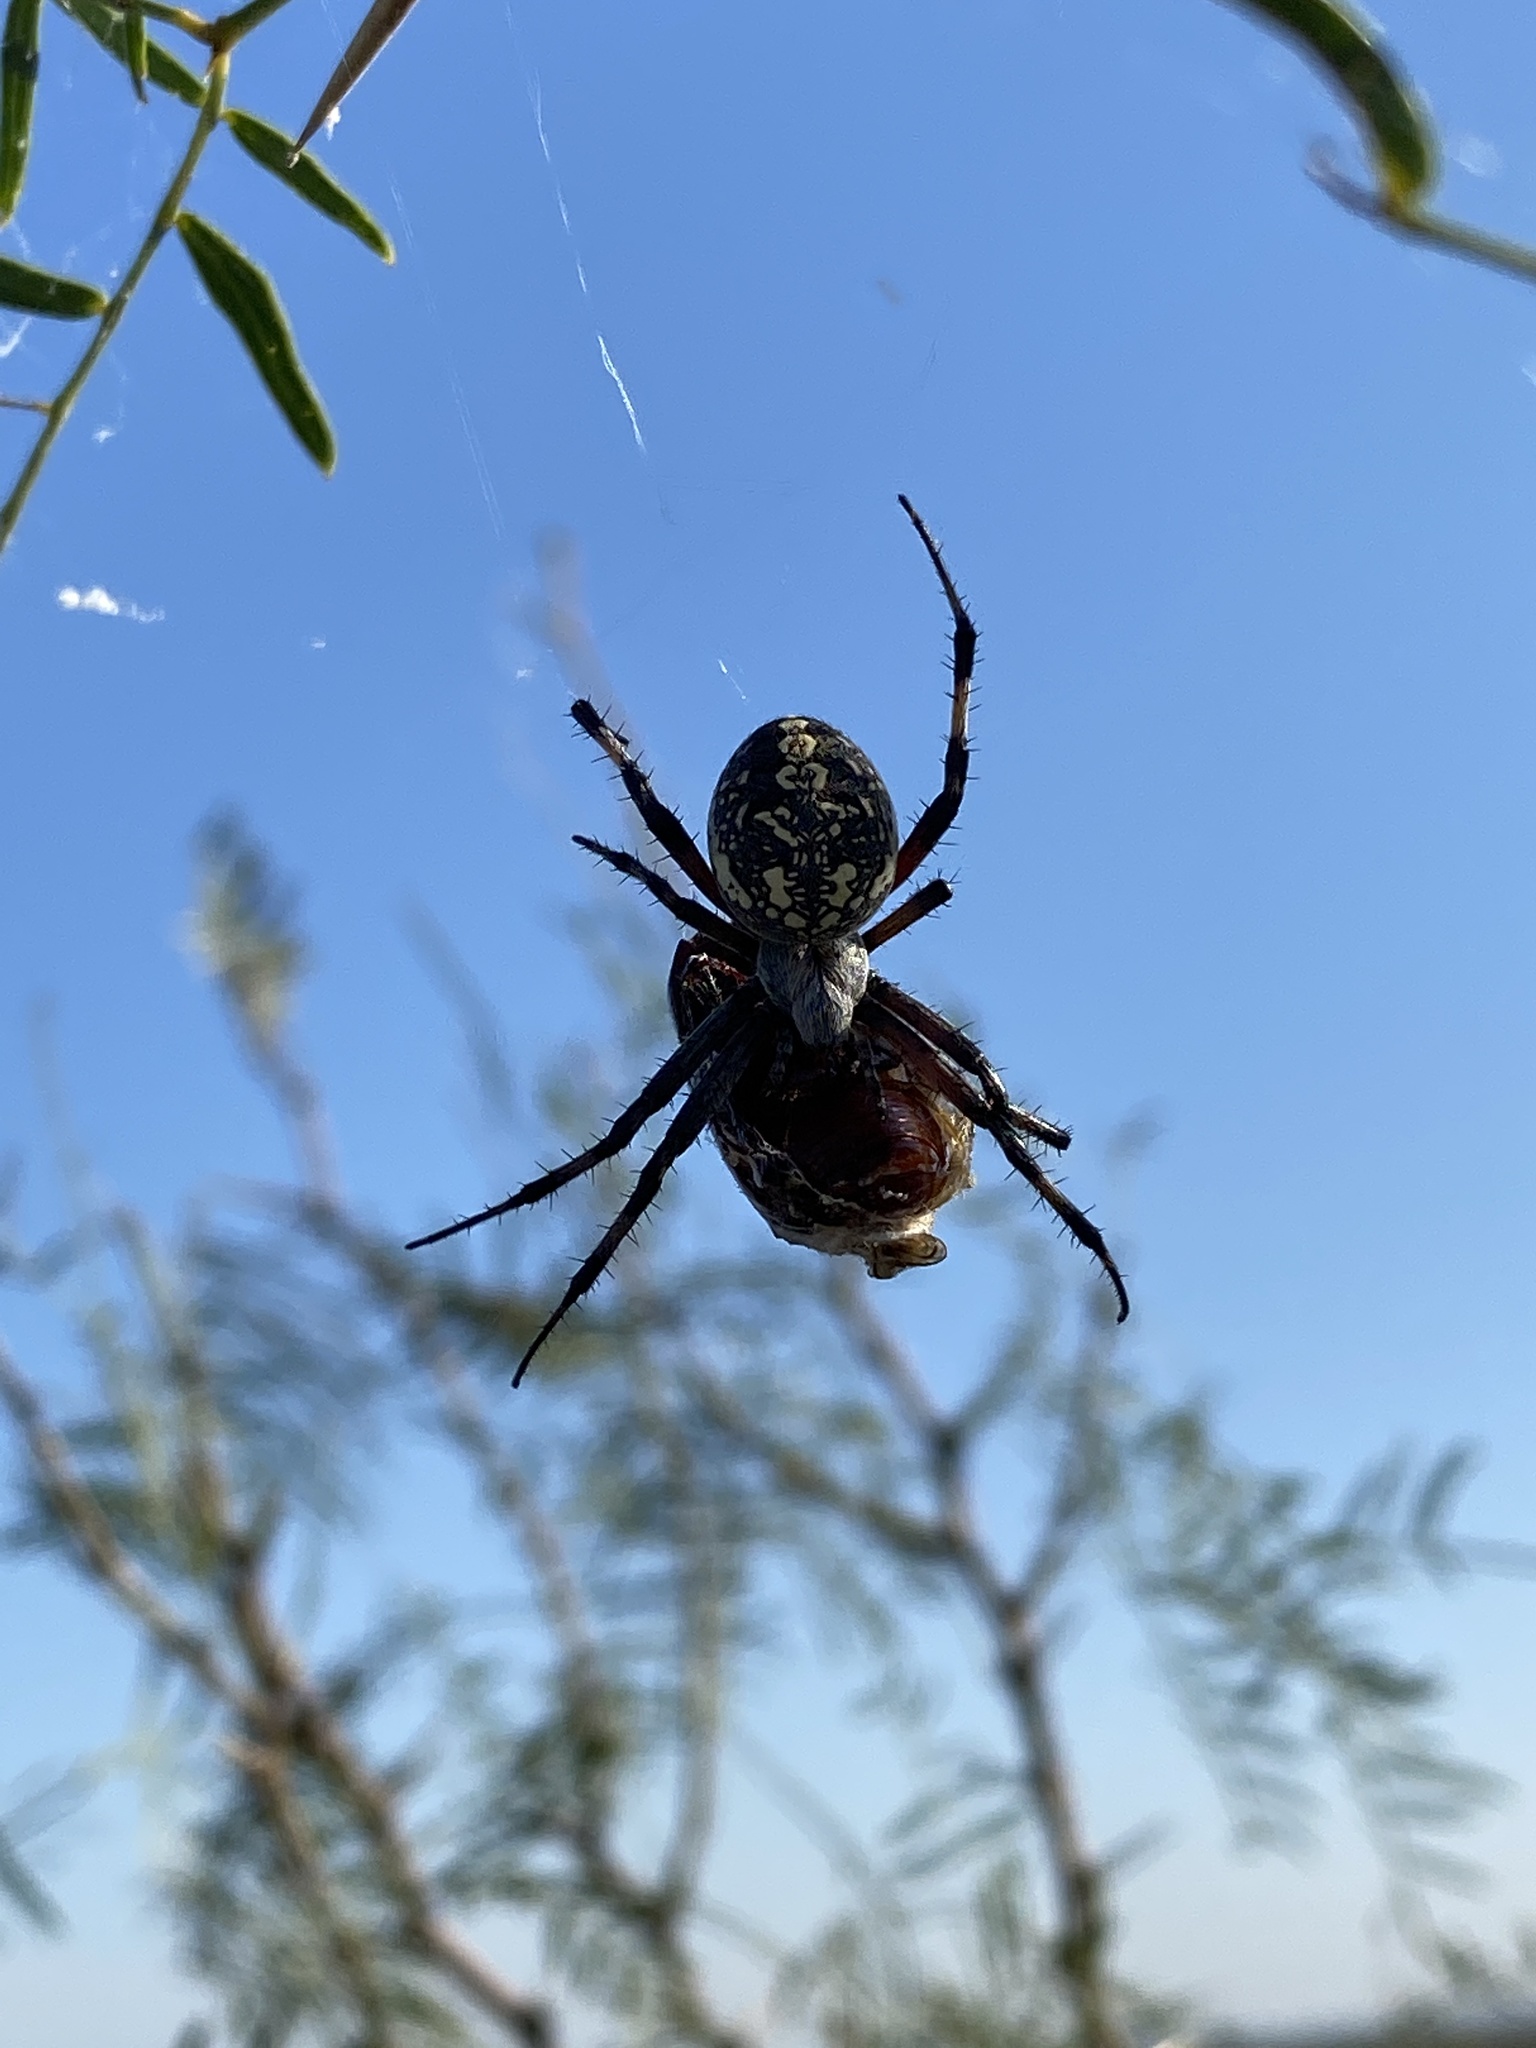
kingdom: Animalia
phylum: Arthropoda
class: Arachnida
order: Araneae
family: Araneidae
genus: Neoscona
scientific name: Neoscona oaxacensis
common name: Orb weavers
